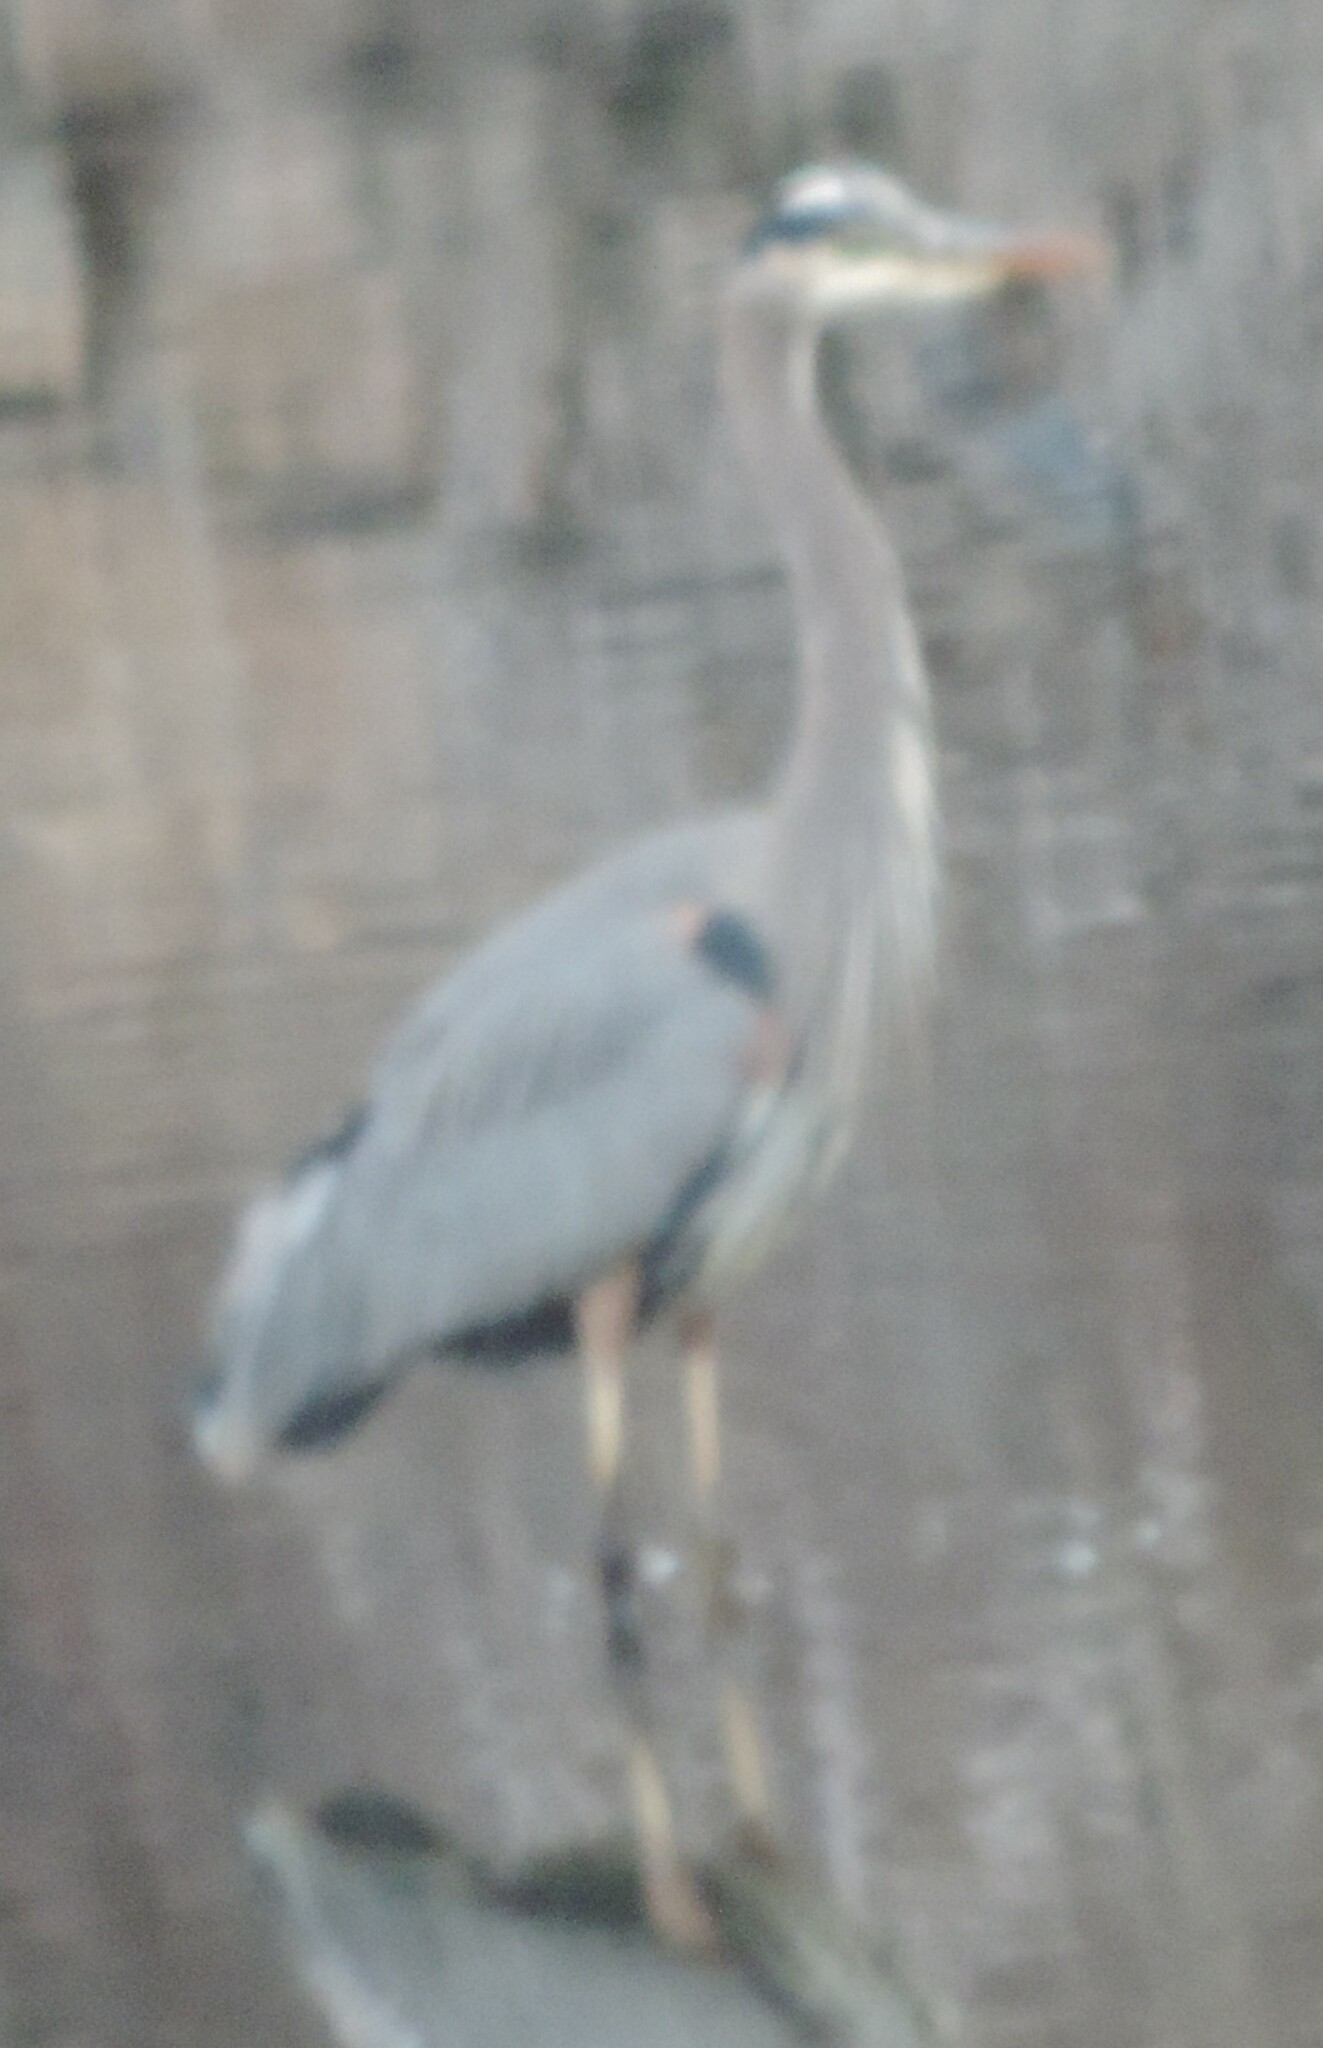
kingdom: Animalia
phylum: Chordata
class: Aves
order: Pelecaniformes
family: Ardeidae
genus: Ardea
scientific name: Ardea herodias
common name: Great blue heron
